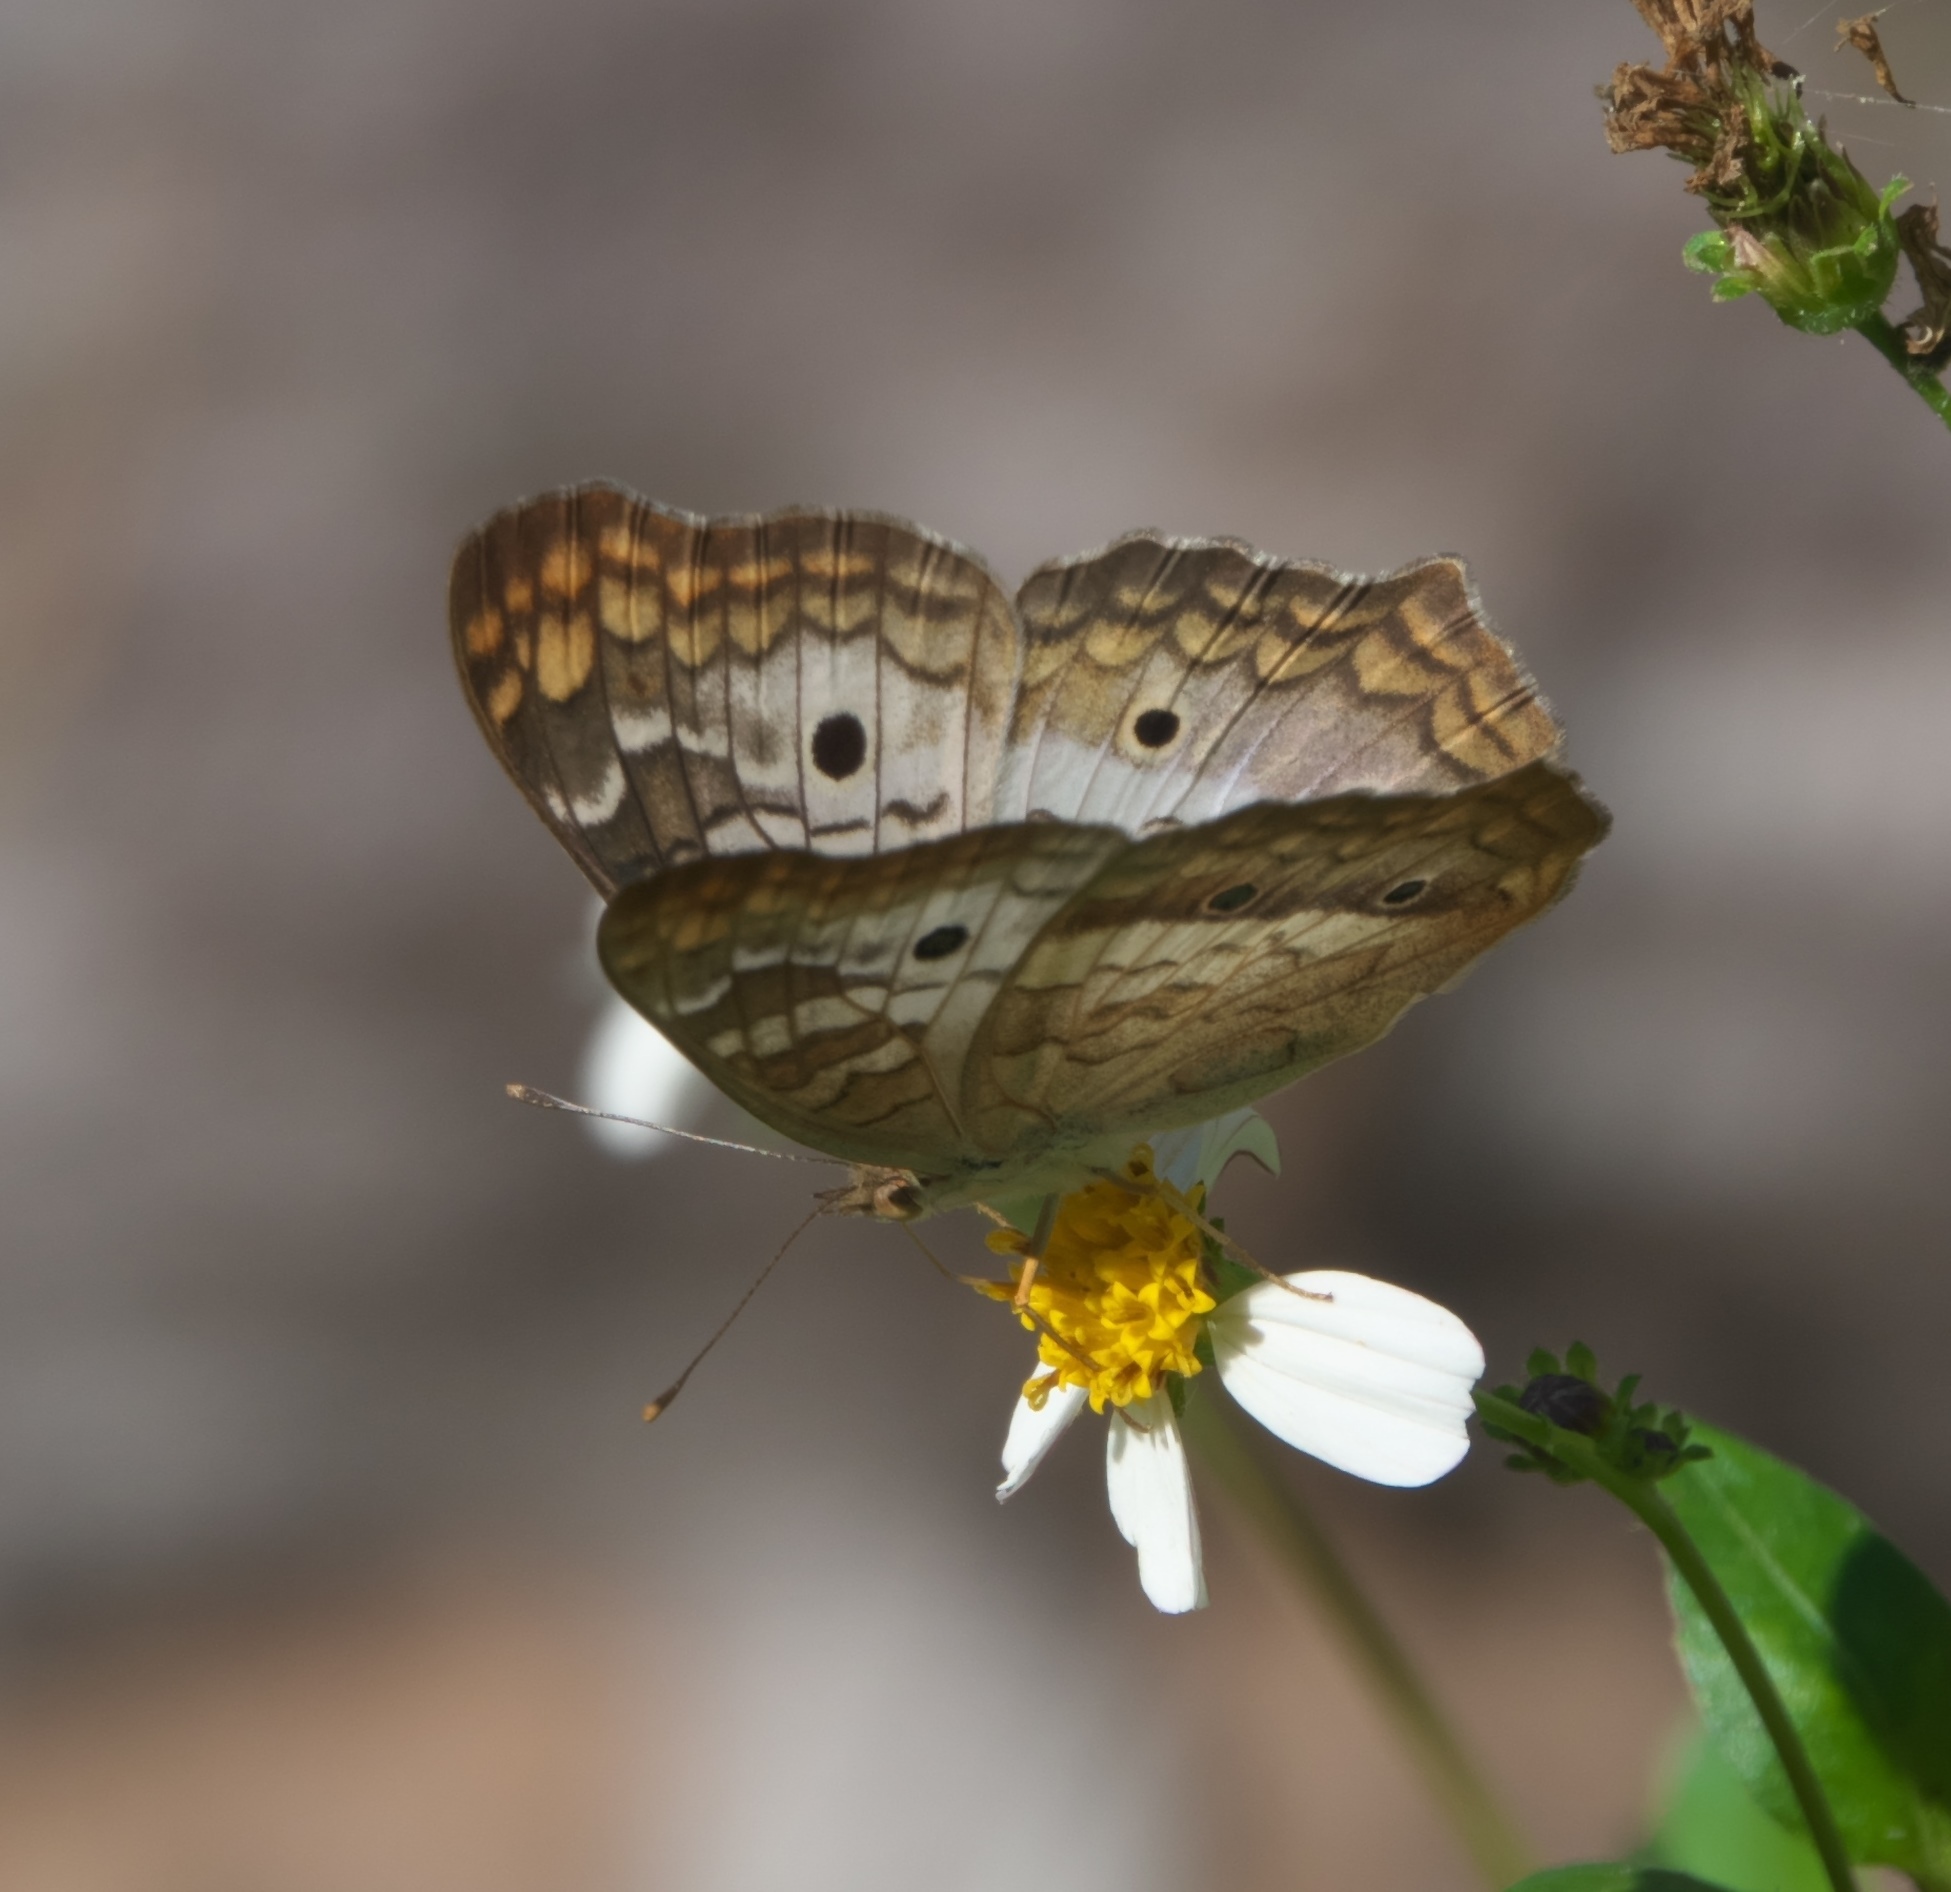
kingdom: Animalia
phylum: Arthropoda
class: Insecta
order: Lepidoptera
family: Nymphalidae
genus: Anartia
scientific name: Anartia jatrophae
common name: White peacock
